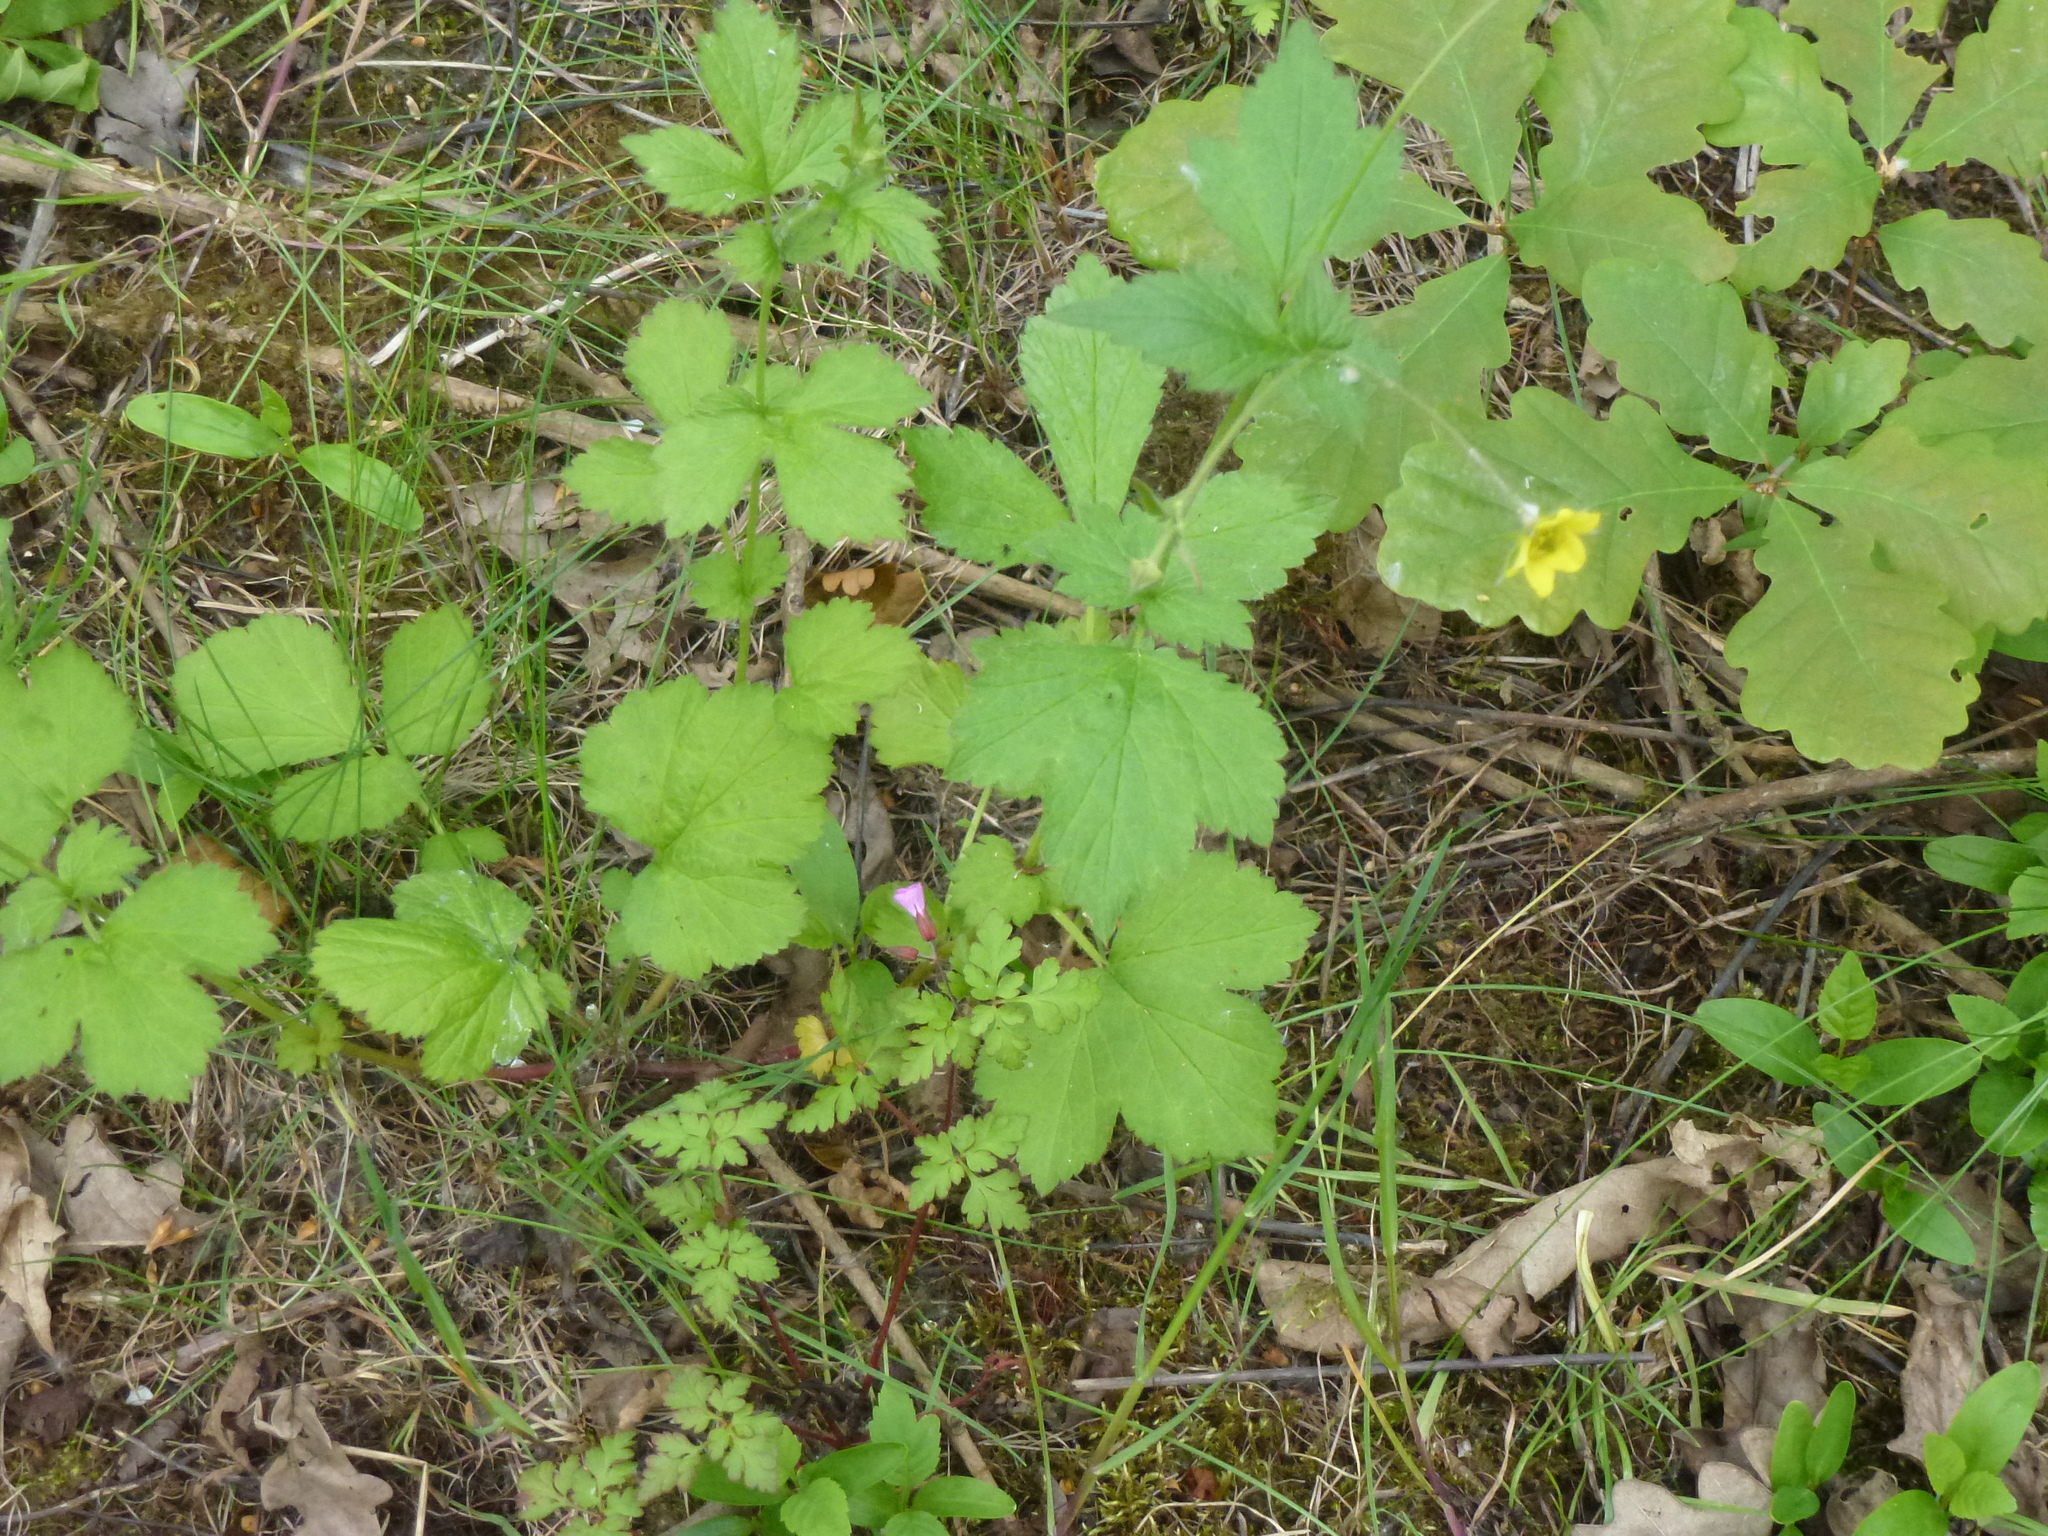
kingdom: Plantae
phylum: Tracheophyta
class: Magnoliopsida
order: Rosales
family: Rosaceae
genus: Geum
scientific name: Geum urbanum
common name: Wood avens
